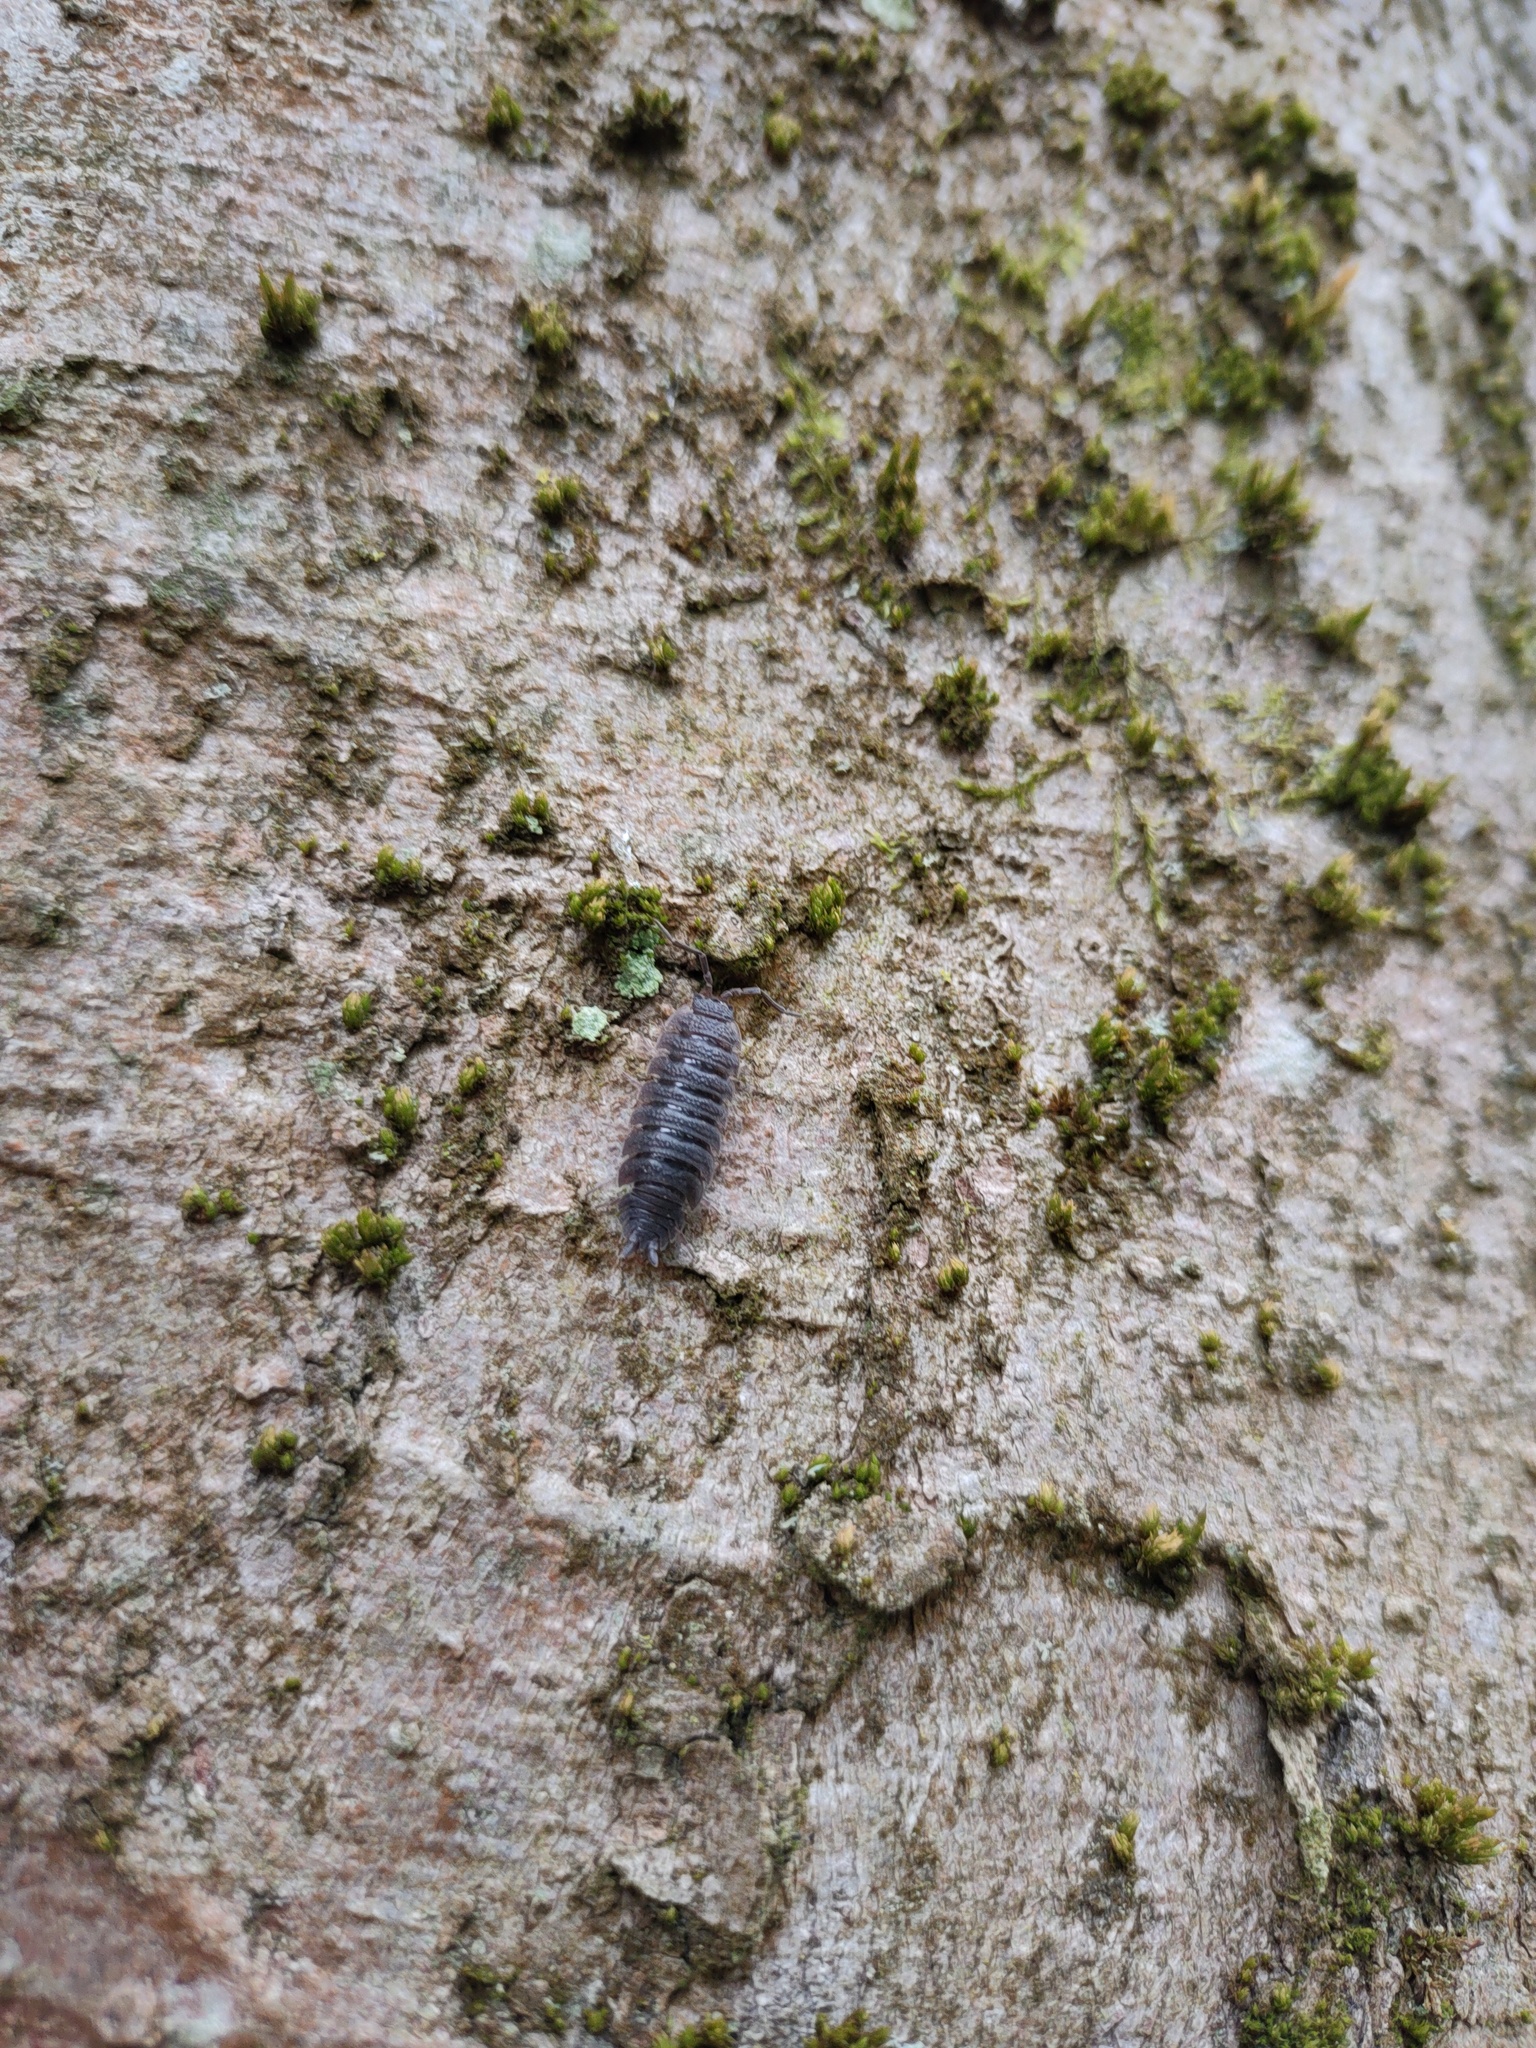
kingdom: Animalia
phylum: Arthropoda
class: Malacostraca
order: Isopoda
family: Porcellionidae
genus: Porcellio
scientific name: Porcellio scaber
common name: Common rough woodlouse
